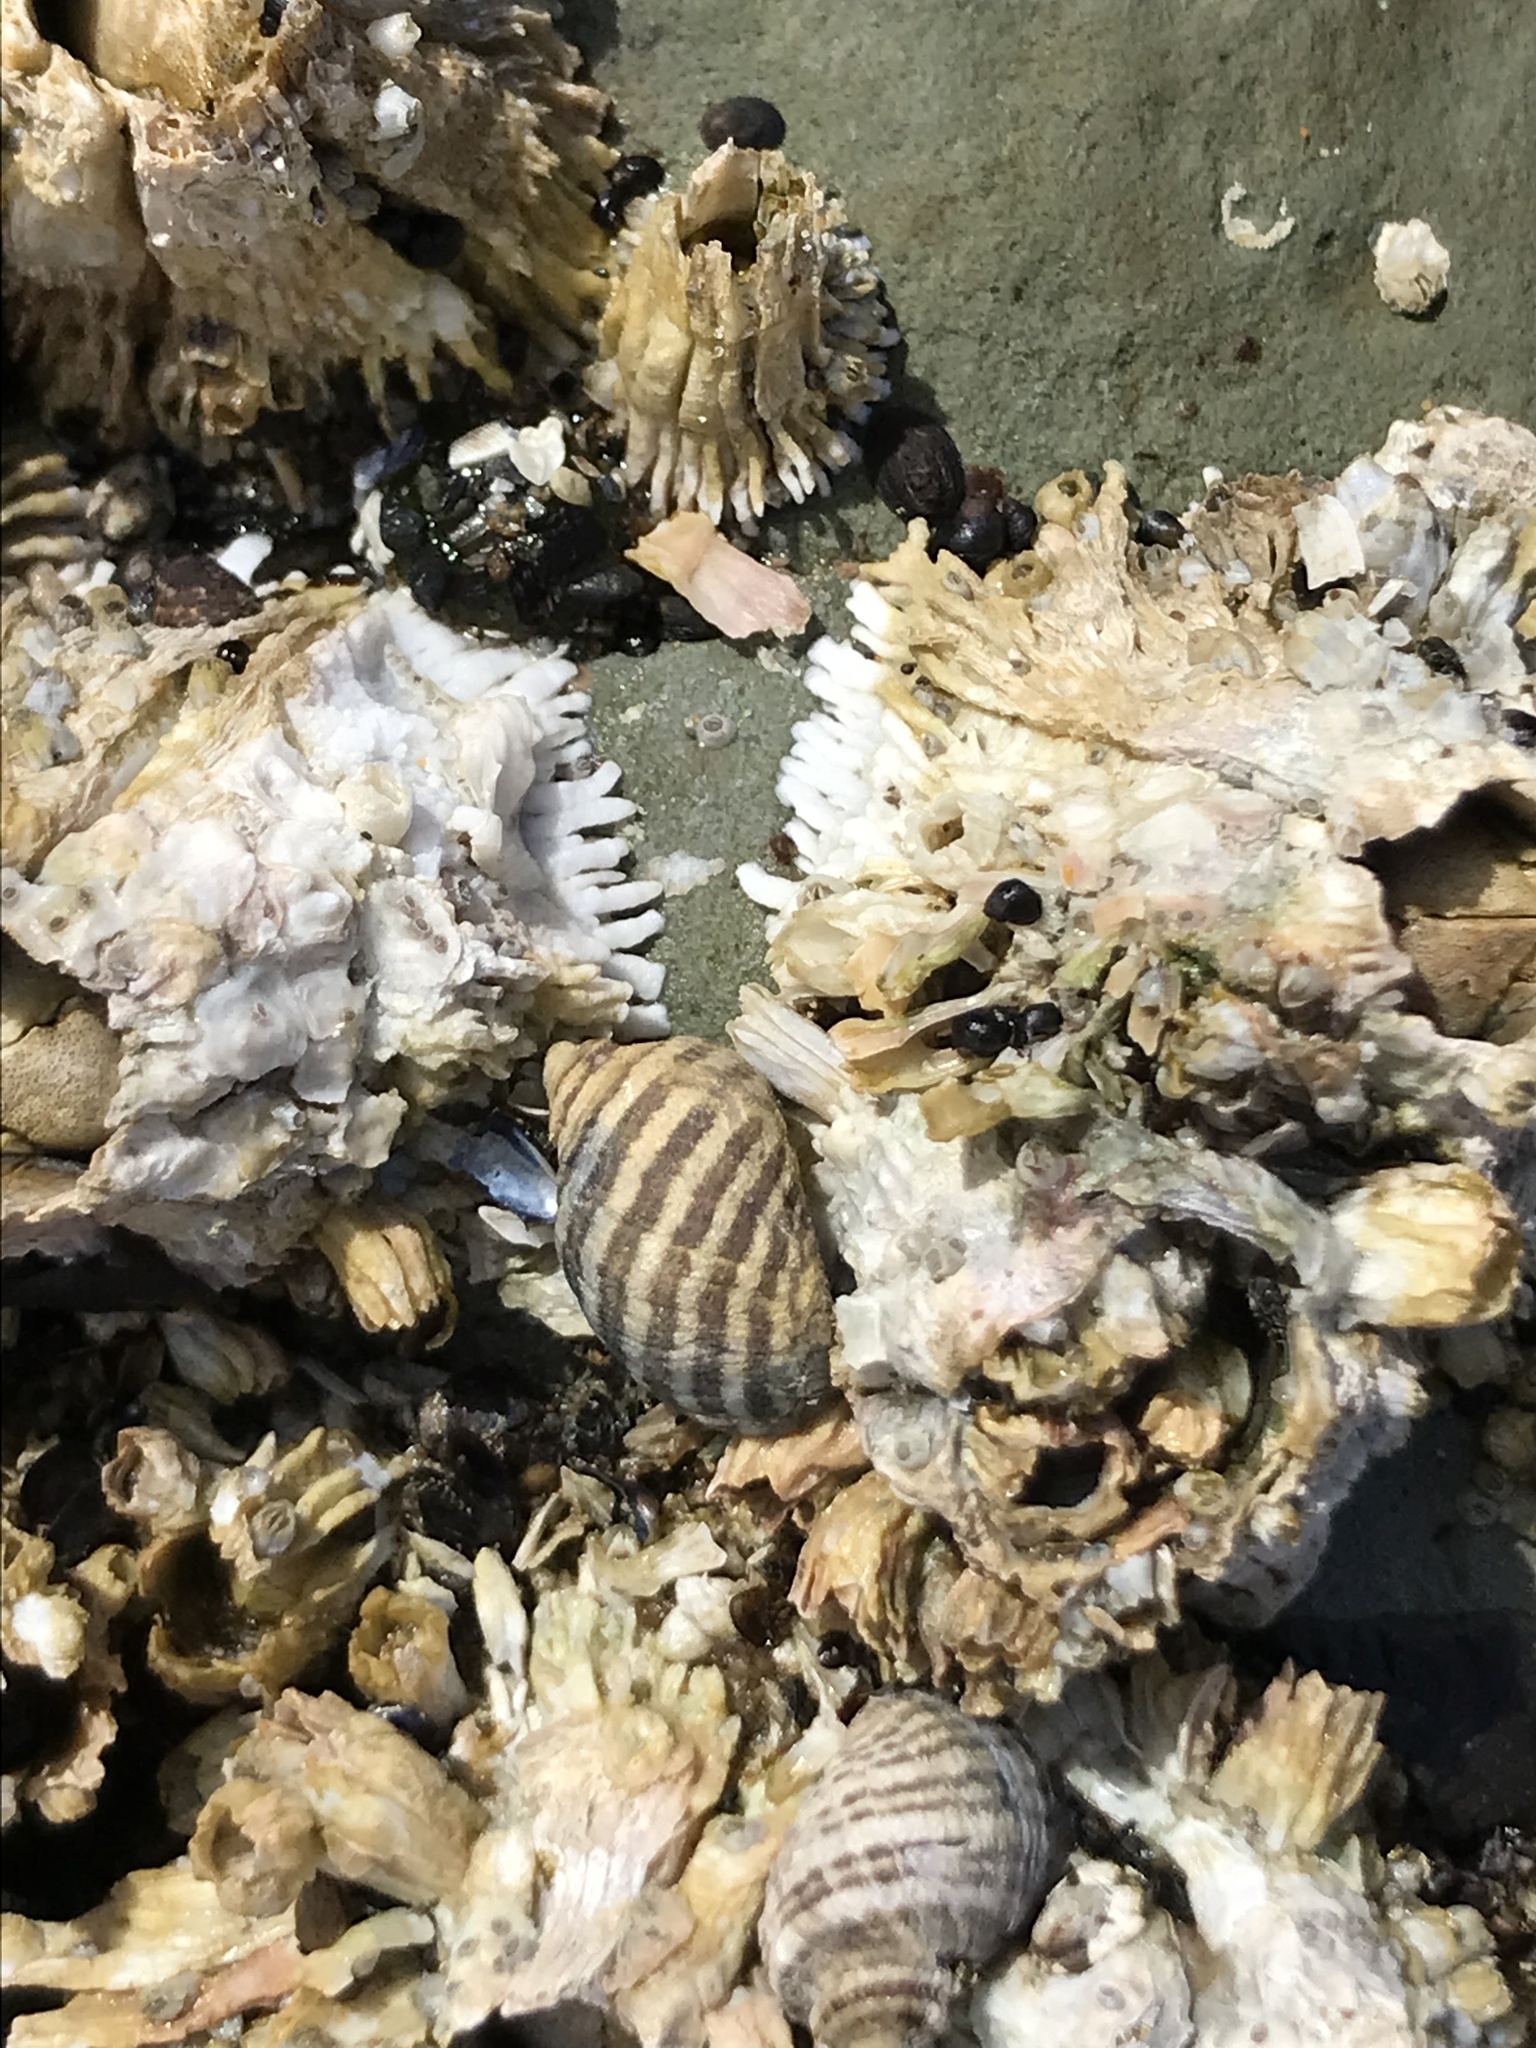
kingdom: Animalia
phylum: Mollusca
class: Gastropoda
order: Neogastropoda
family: Muricidae
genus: Nucella
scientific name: Nucella ostrina
